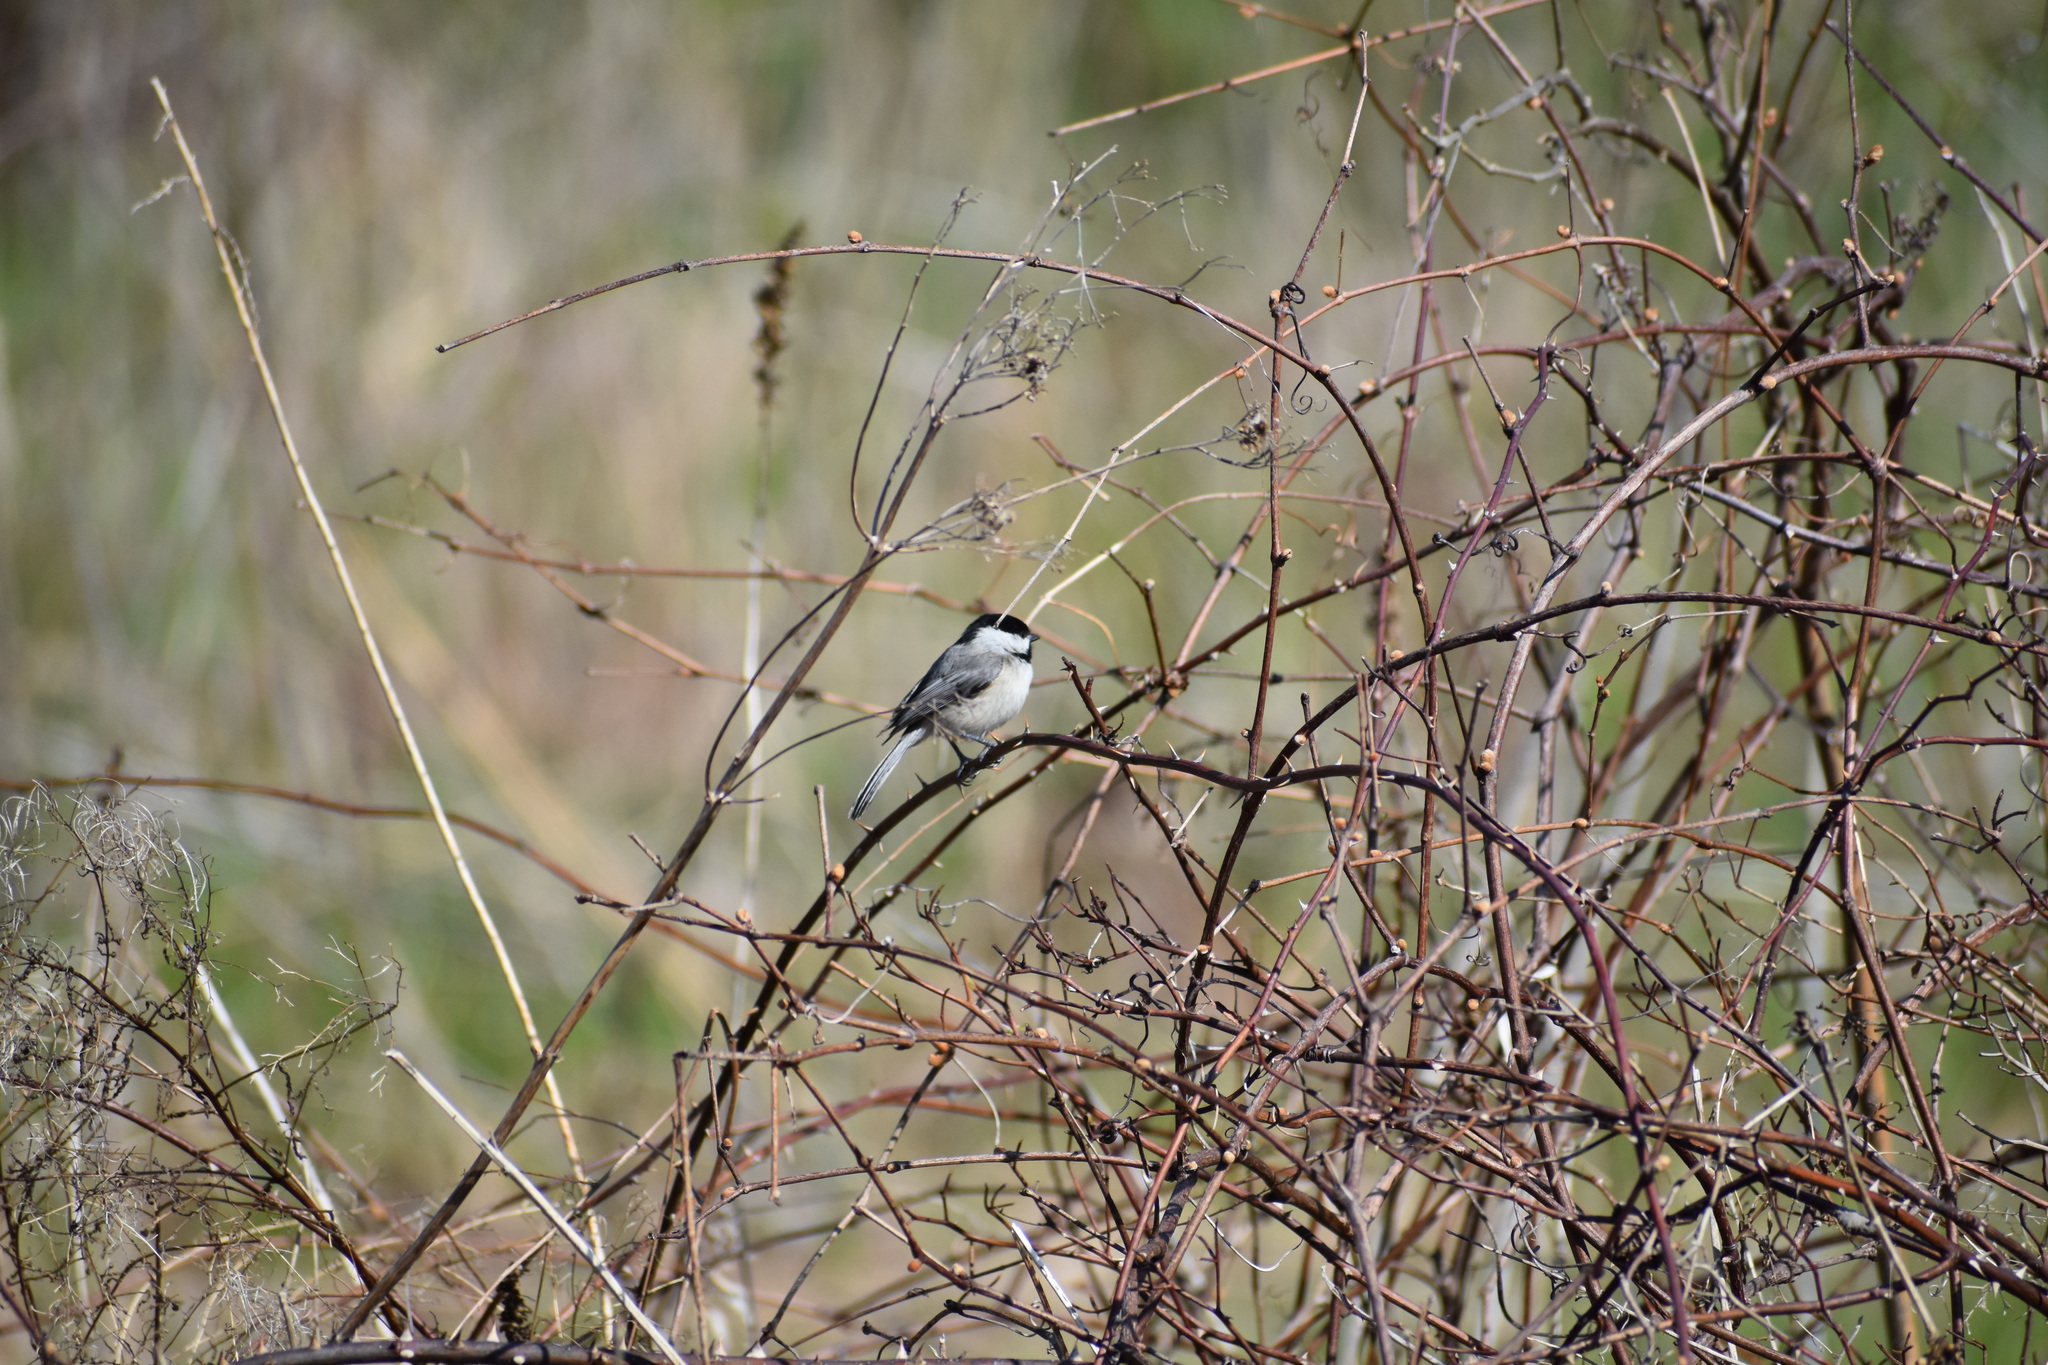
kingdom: Animalia
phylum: Chordata
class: Aves
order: Passeriformes
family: Paridae
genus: Poecile
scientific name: Poecile carolinensis
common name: Carolina chickadee
